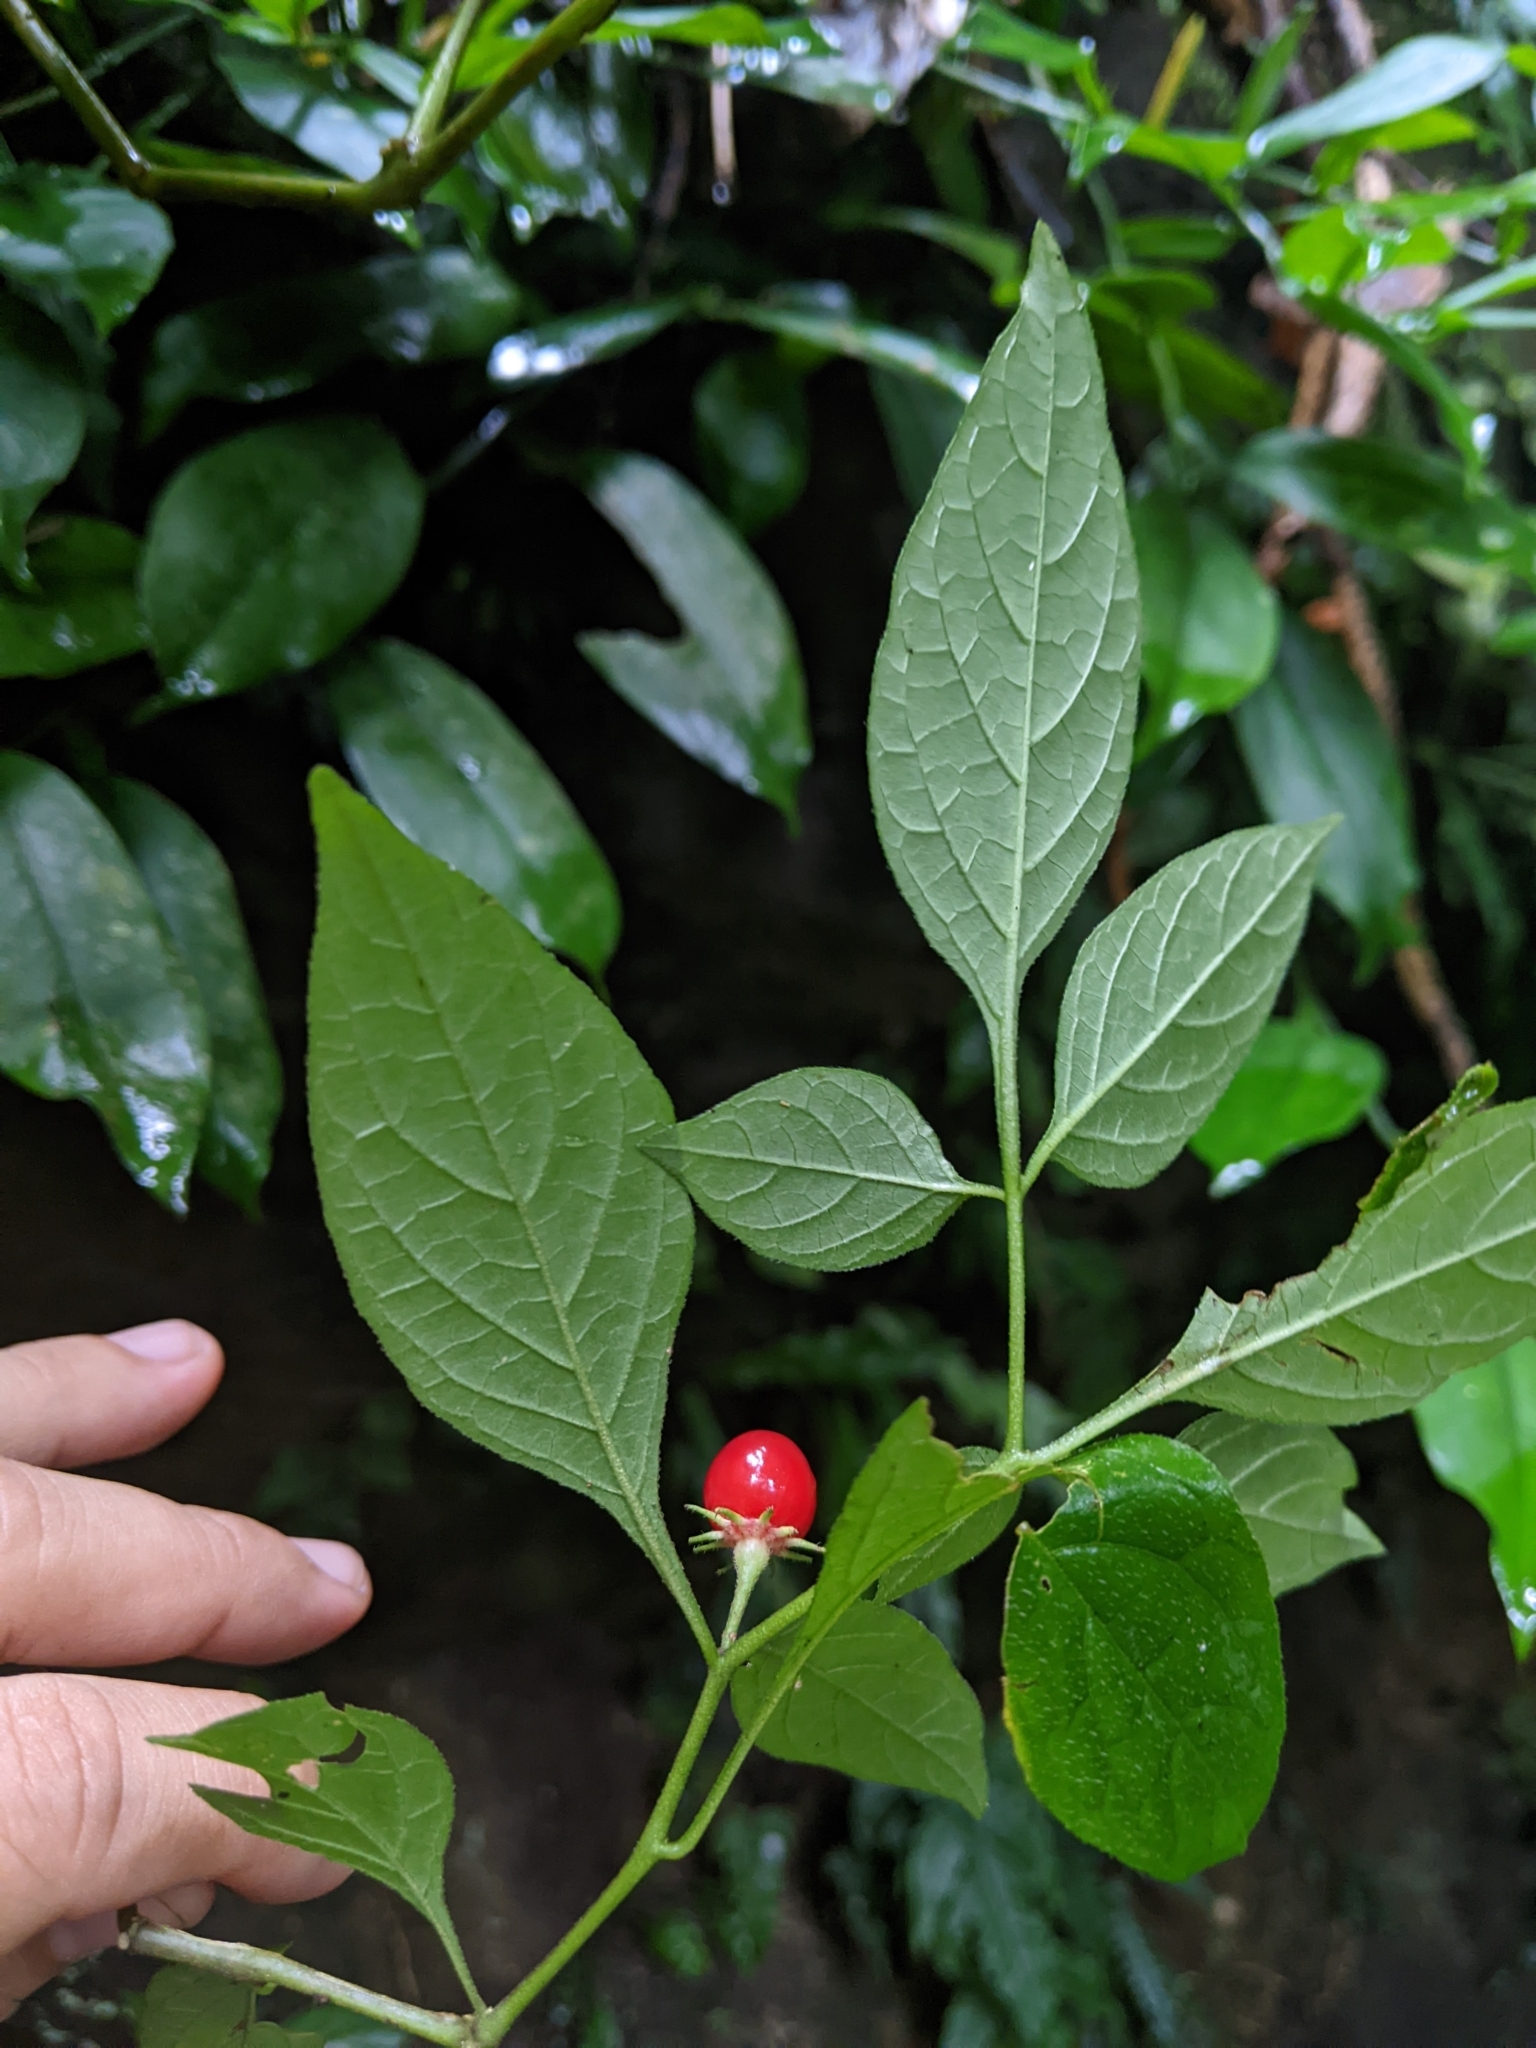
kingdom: Plantae
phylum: Tracheophyta
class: Magnoliopsida
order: Solanales
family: Solanaceae
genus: Lycianthes
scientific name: Lycianthes biflora
